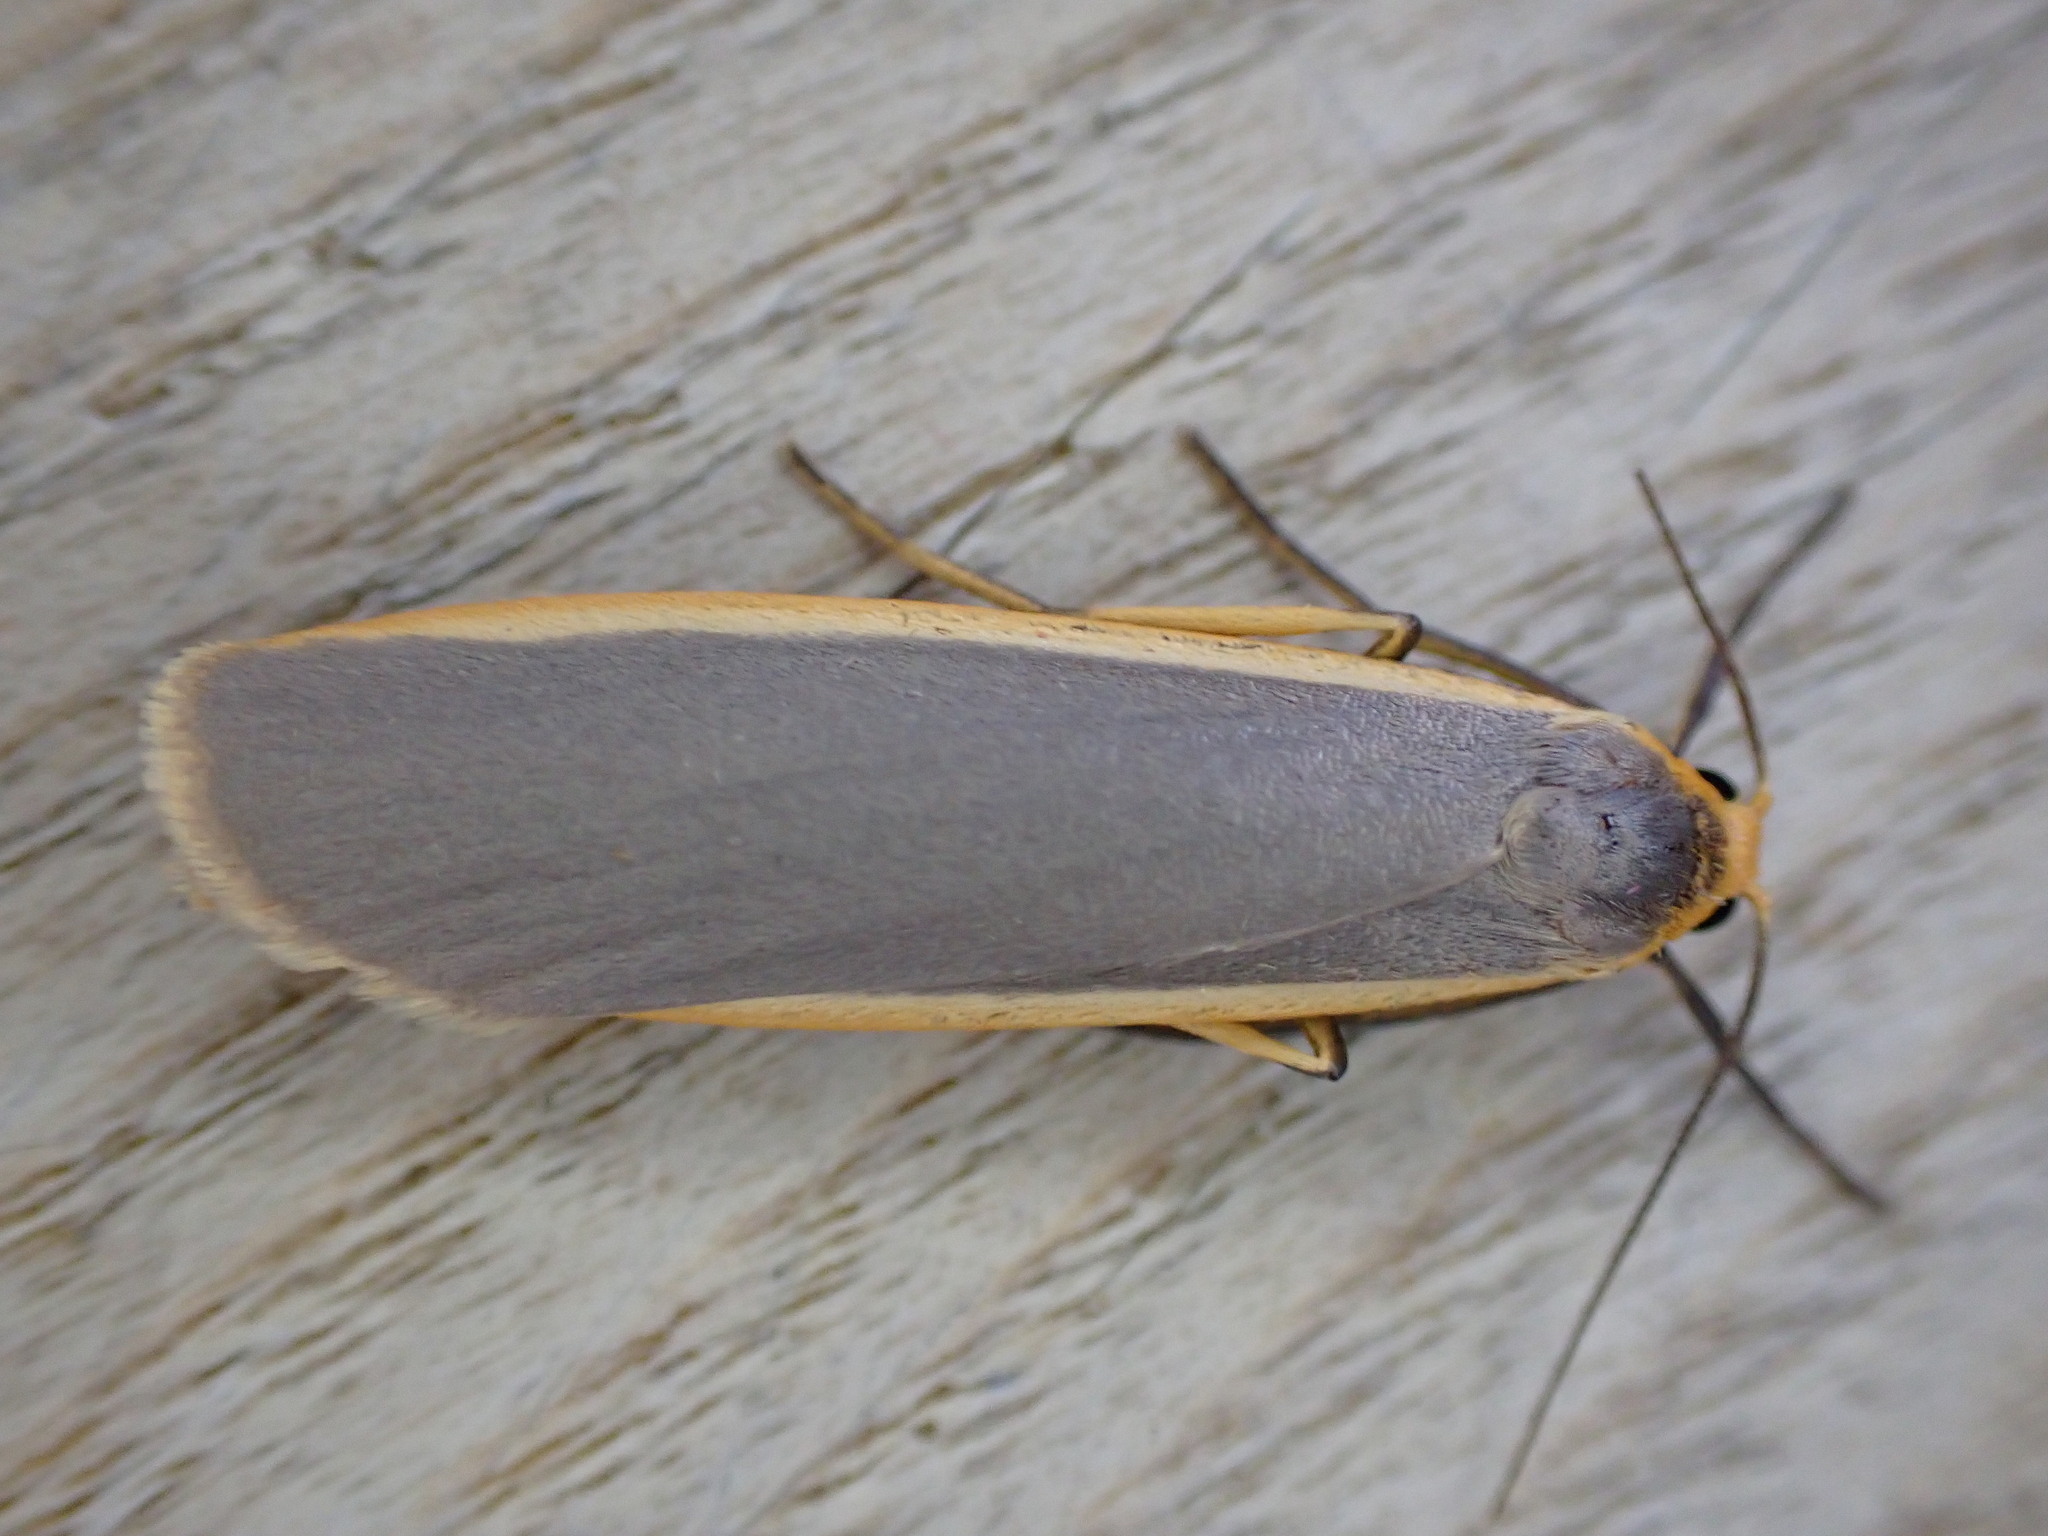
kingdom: Animalia
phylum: Arthropoda
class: Insecta
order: Lepidoptera
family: Erebidae
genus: Nyea
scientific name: Nyea lurideola
